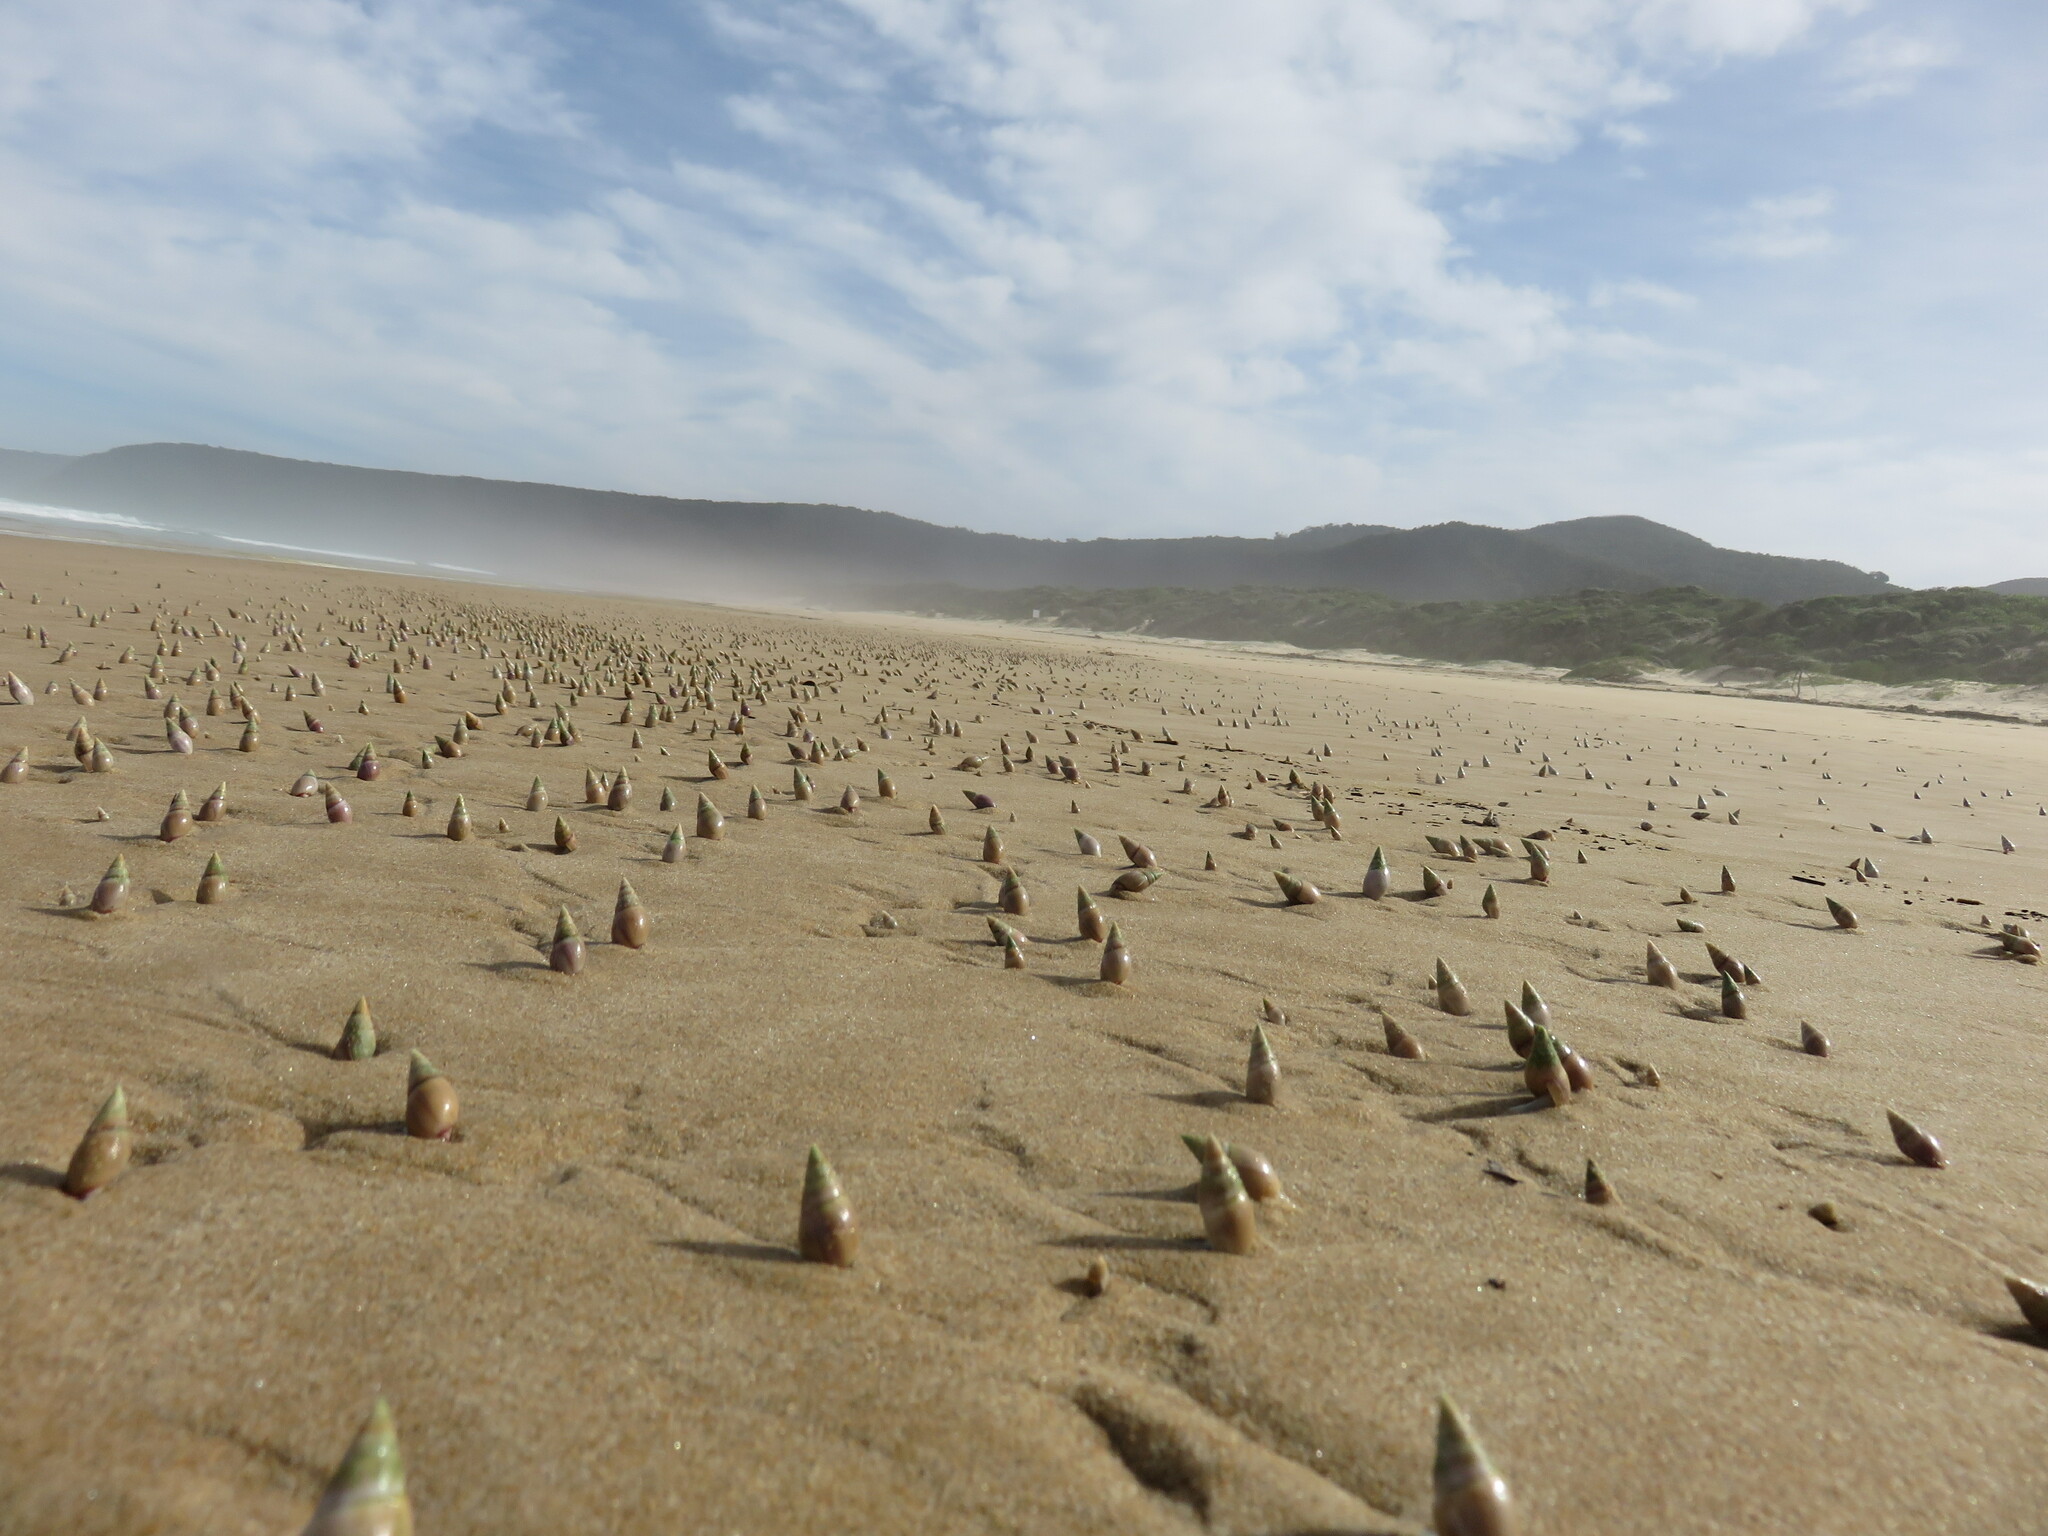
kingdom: Animalia
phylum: Mollusca
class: Gastropoda
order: Neogastropoda
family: Nassariidae
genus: Bullia
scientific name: Bullia rhodostoma
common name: Smooth plough shell
